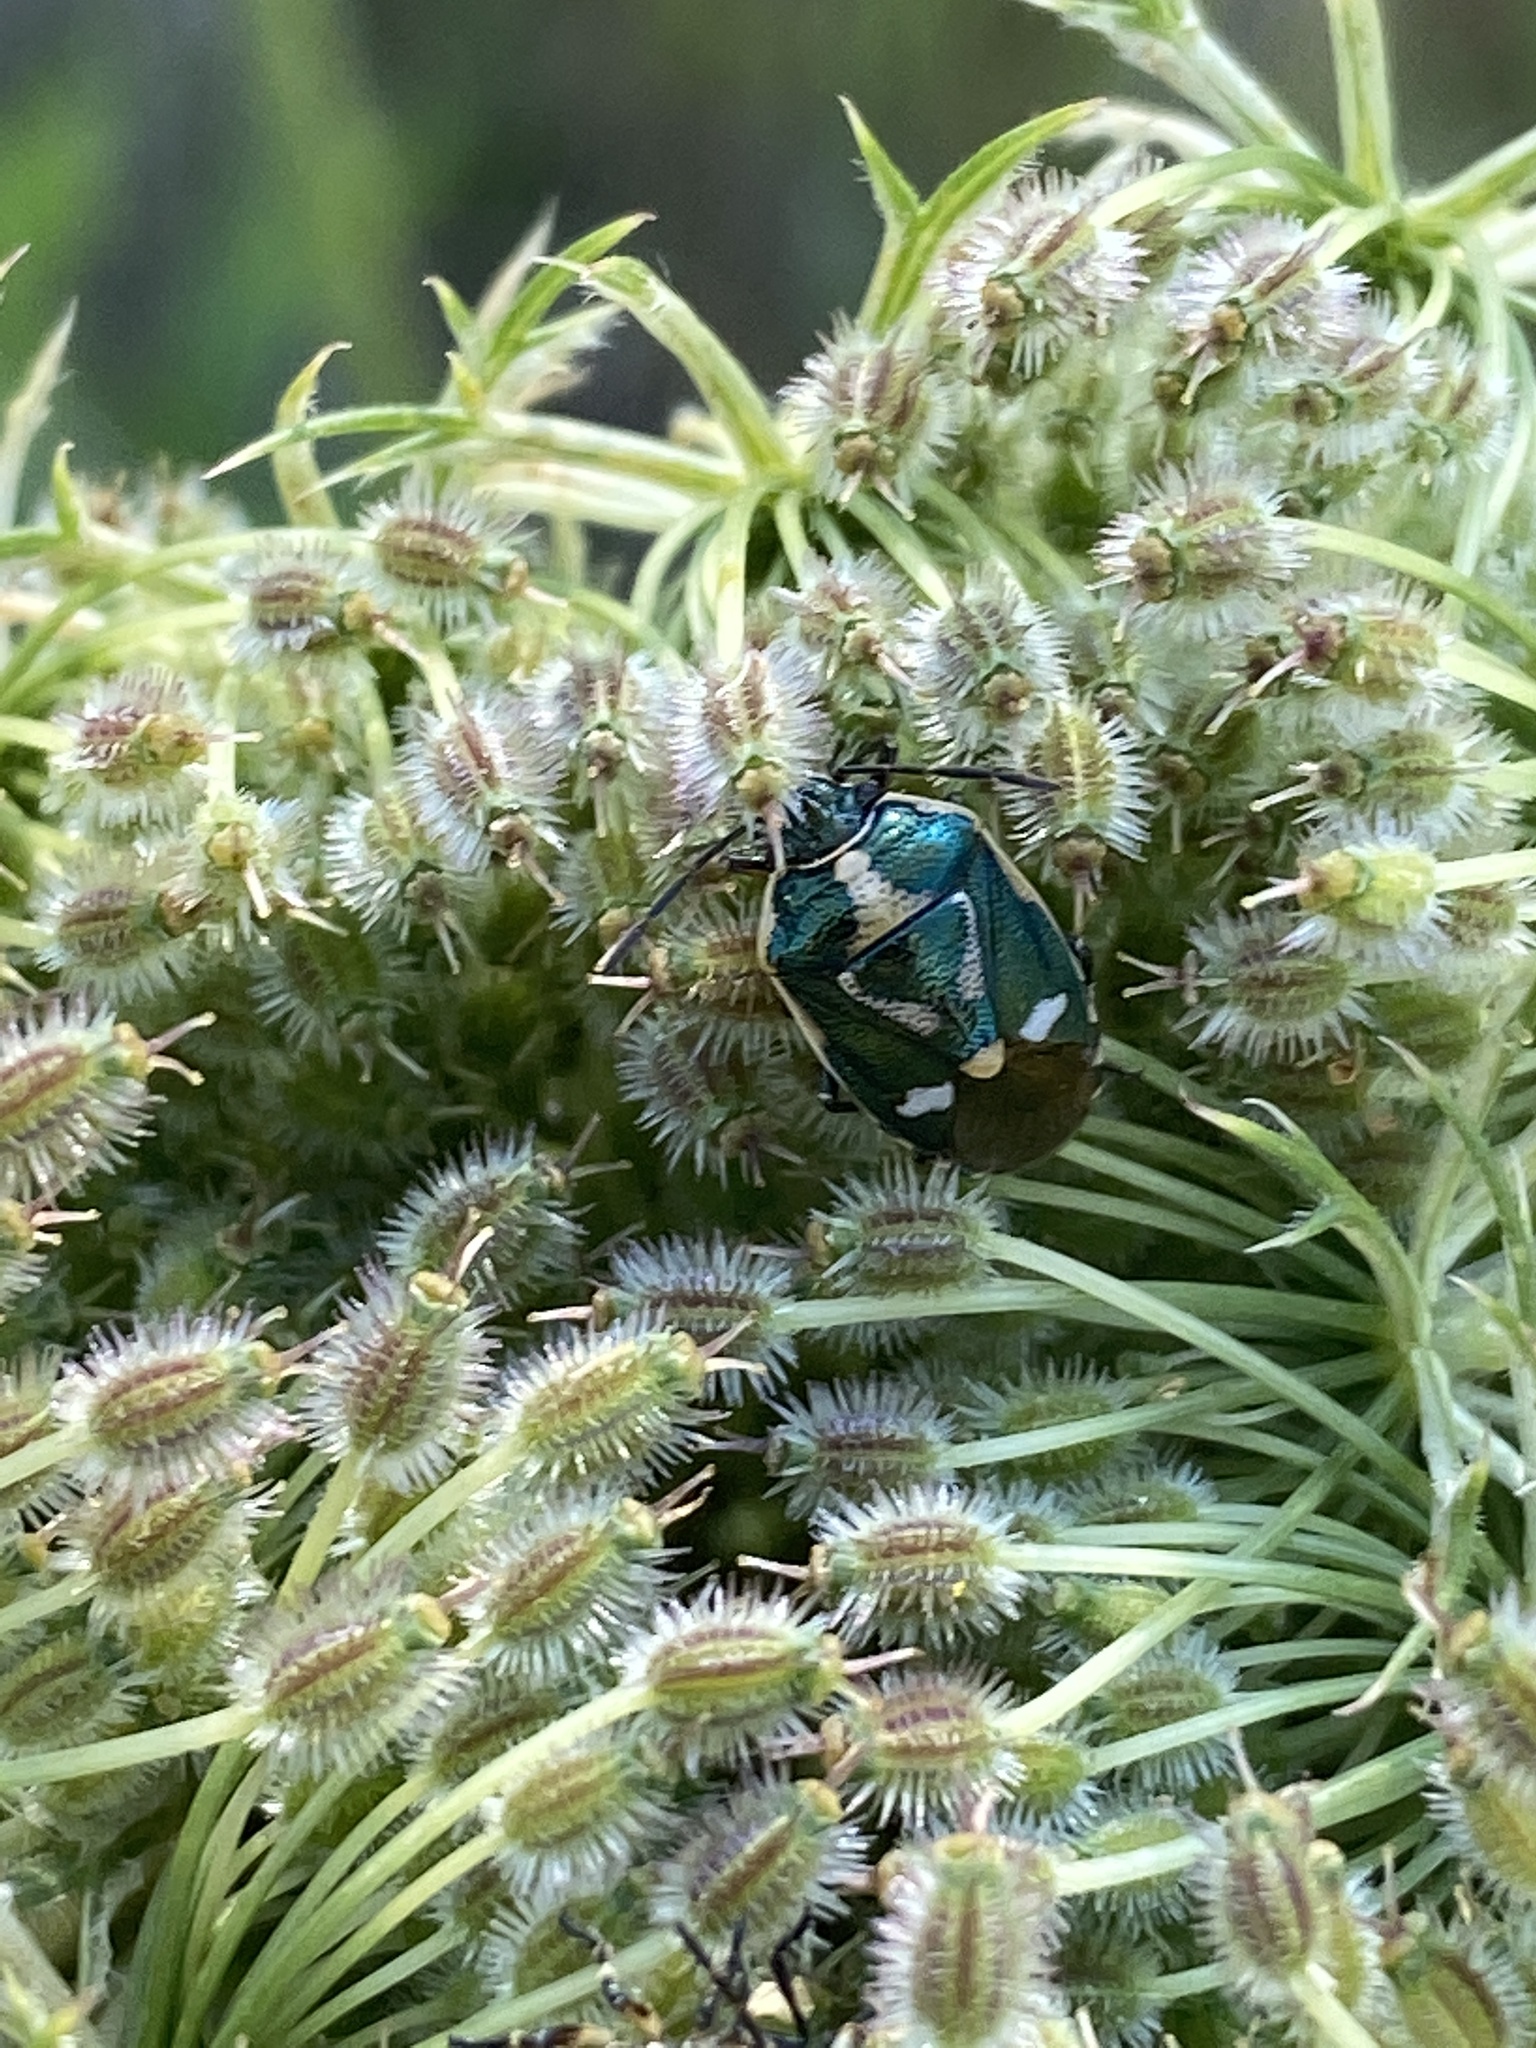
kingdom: Animalia
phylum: Arthropoda
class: Insecta
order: Hemiptera
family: Pentatomidae
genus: Eurydema
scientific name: Eurydema oleracea
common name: Cabbage bug
